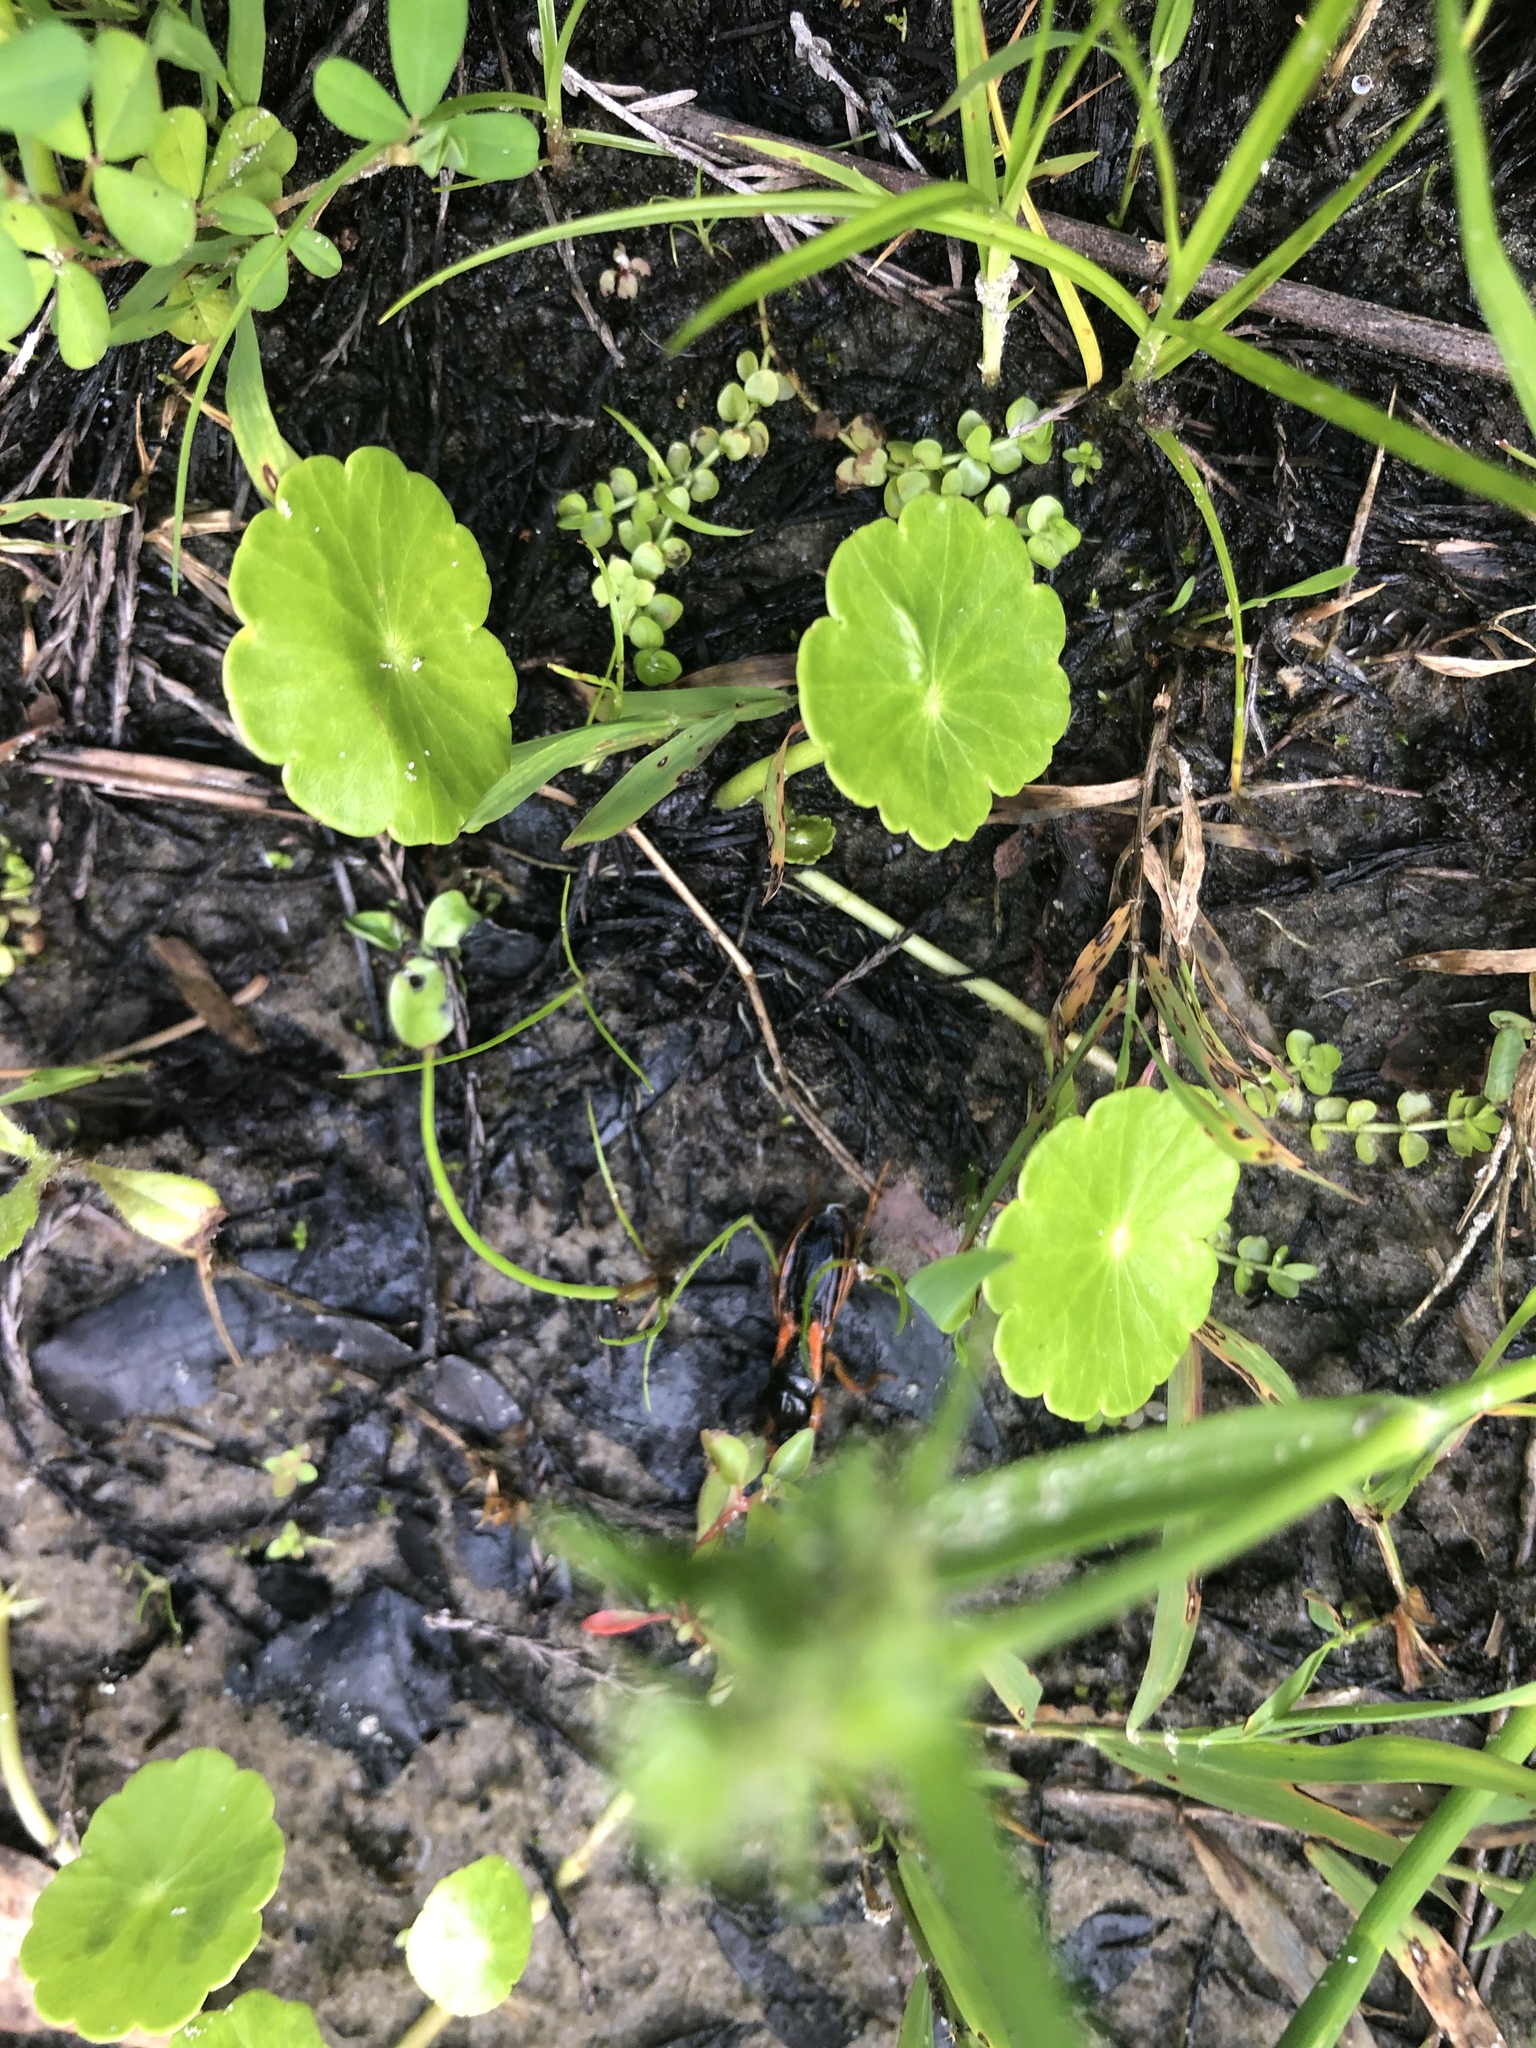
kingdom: Animalia
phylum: Arthropoda
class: Insecta
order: Hemiptera
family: Reduviidae
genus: Sirthenea
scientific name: Sirthenea stria
